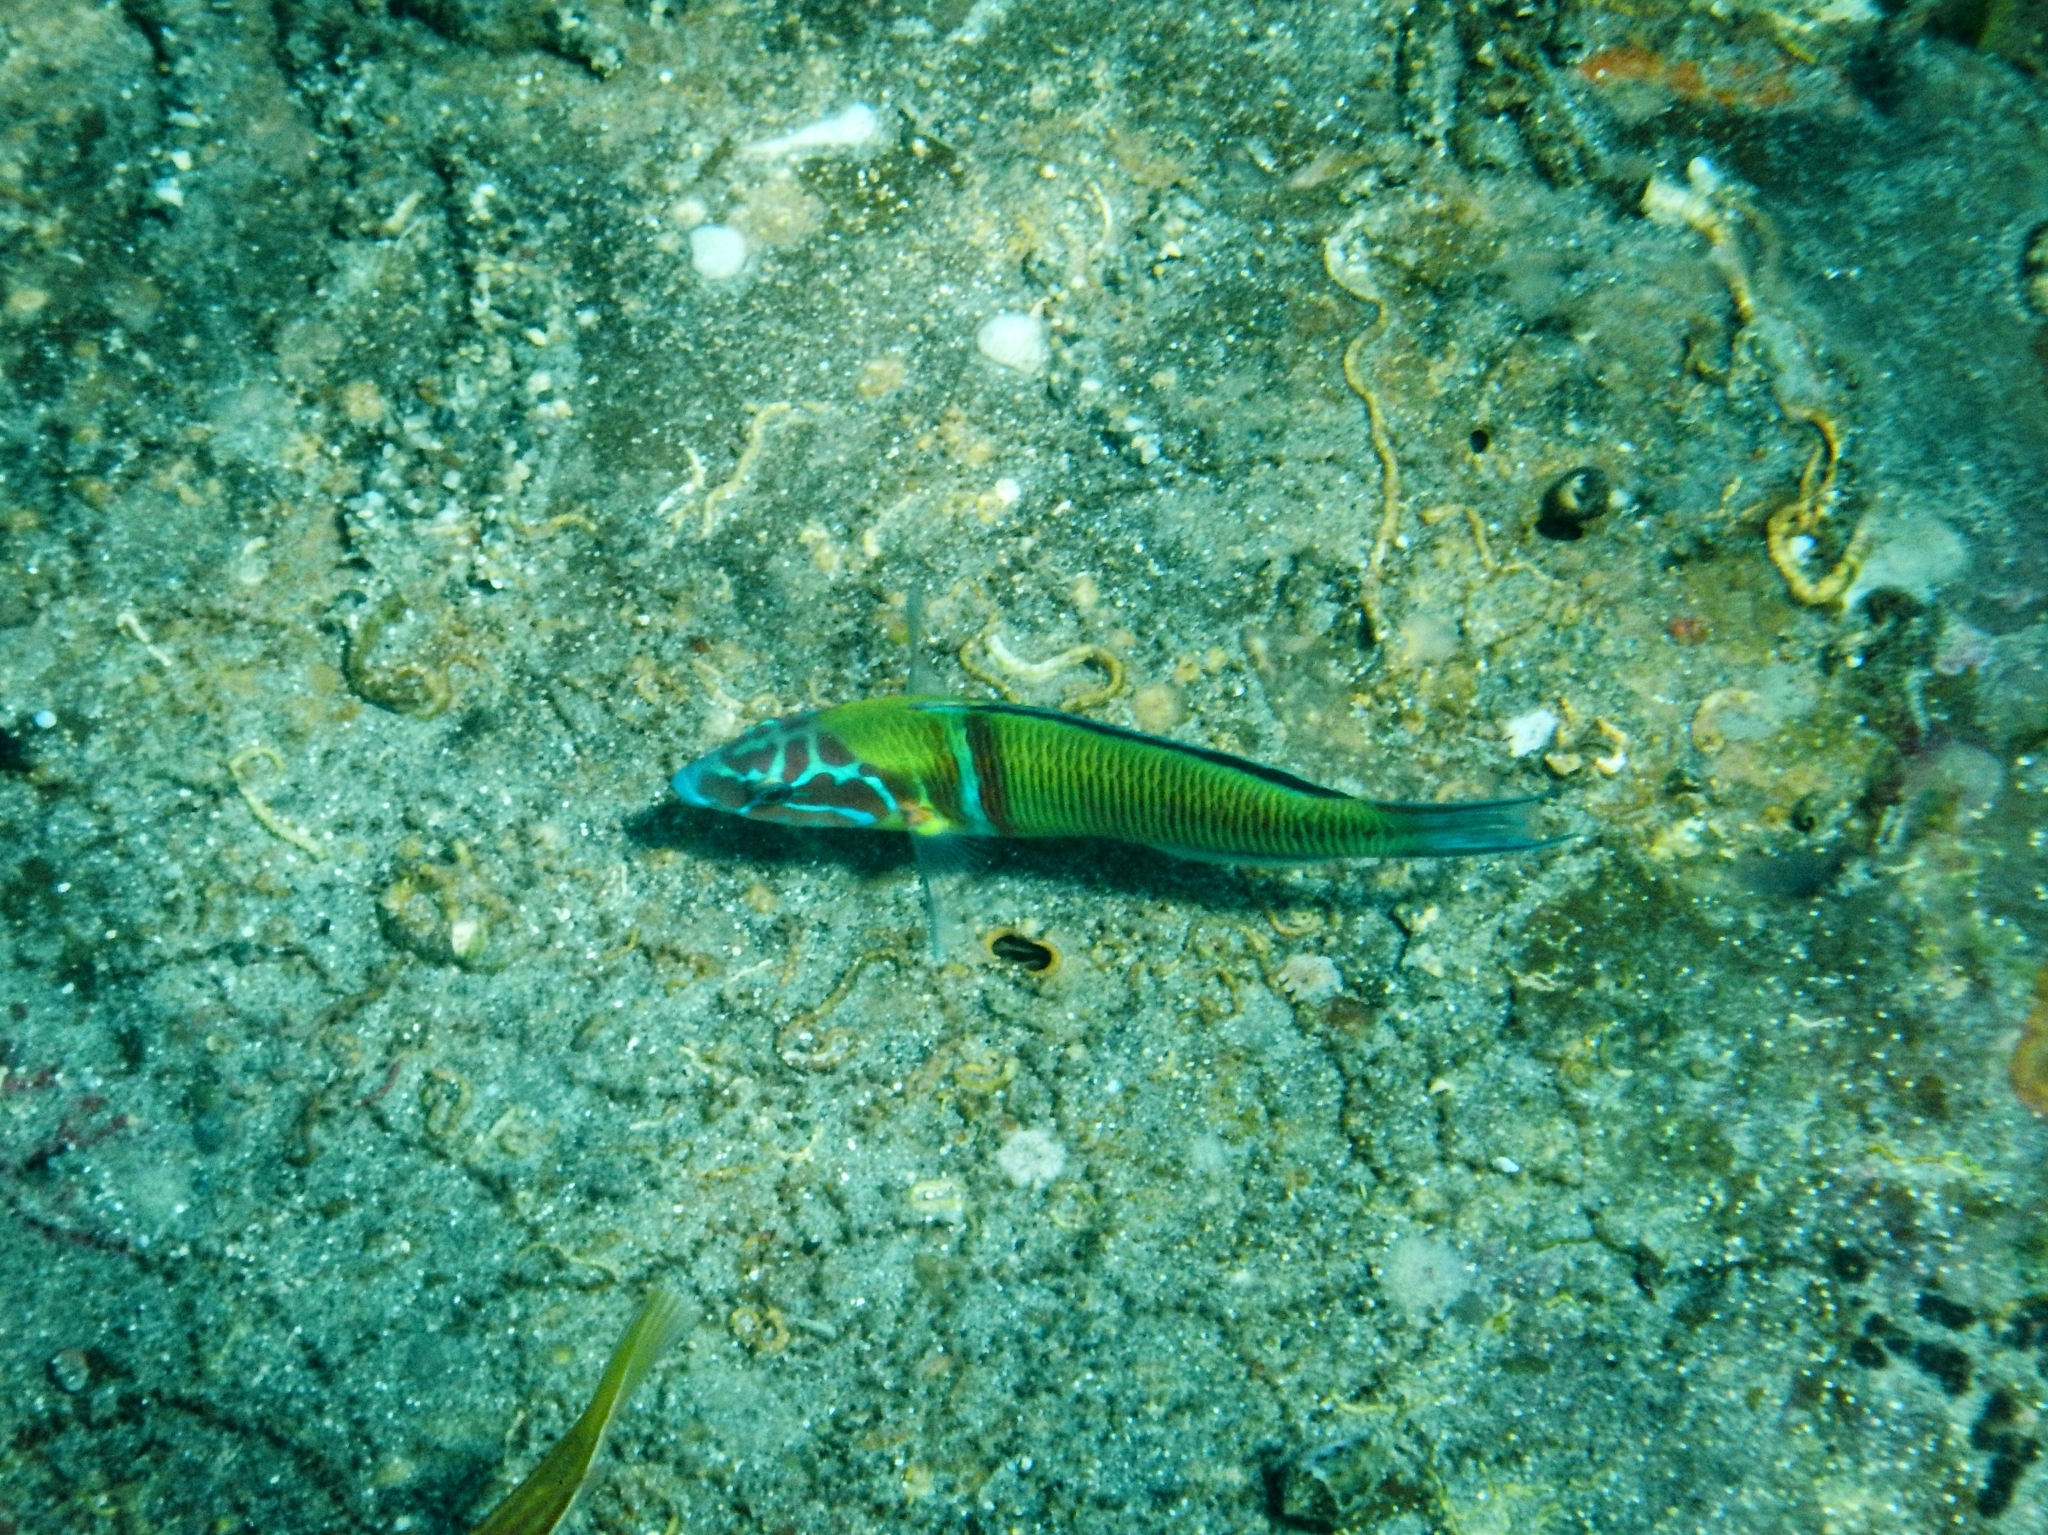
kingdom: Animalia
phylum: Chordata
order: Perciformes
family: Labridae
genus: Thalassoma
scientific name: Thalassoma pavo
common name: Ornate wrasse
